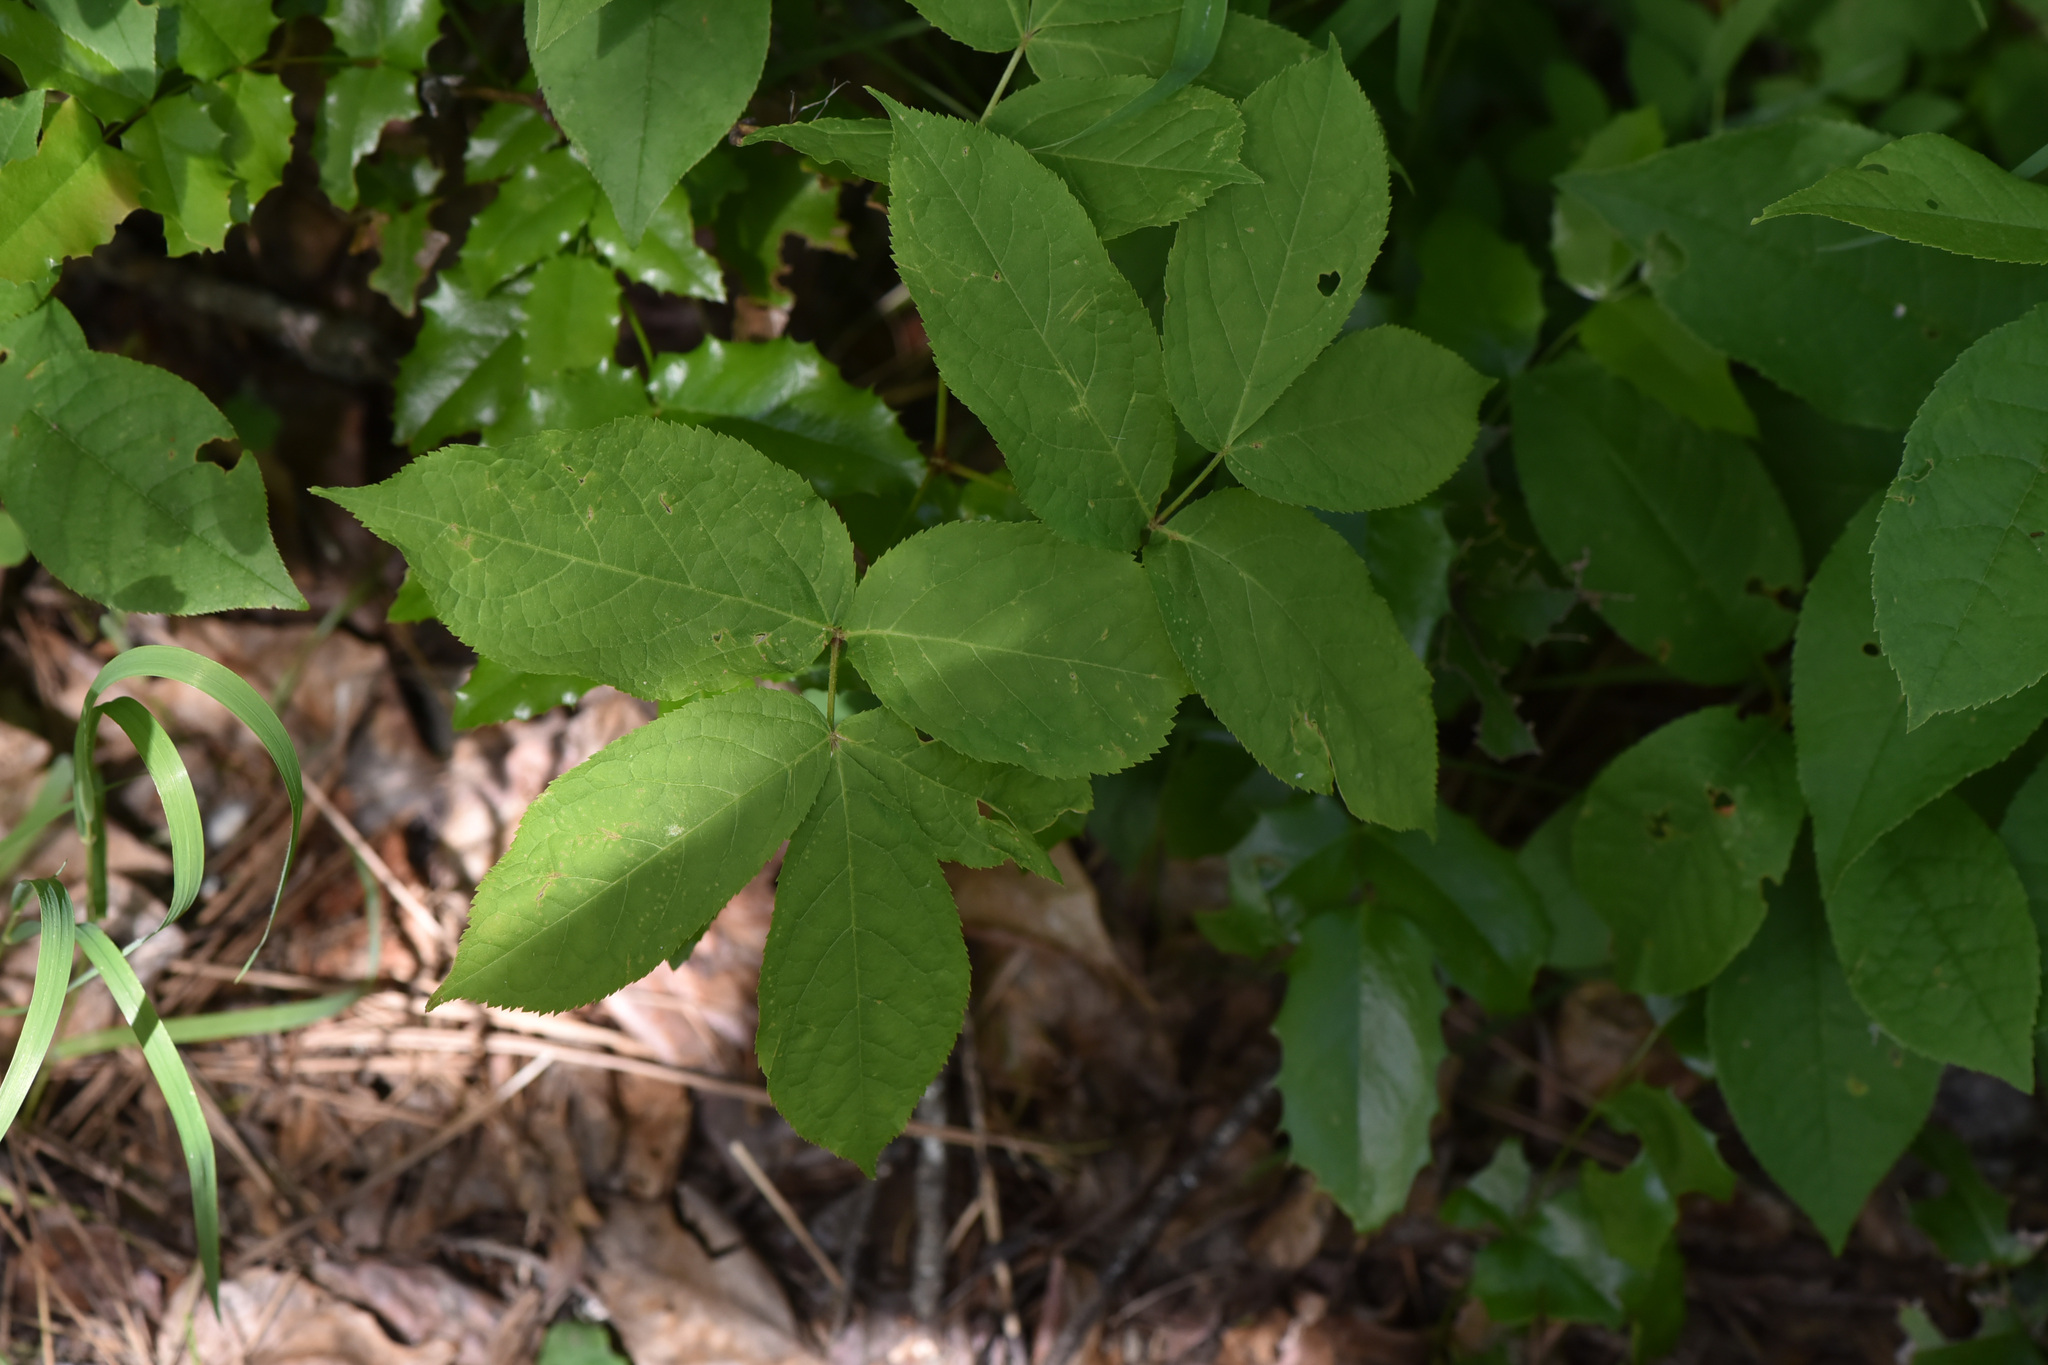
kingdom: Plantae
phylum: Tracheophyta
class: Magnoliopsida
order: Apiales
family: Araliaceae
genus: Aralia
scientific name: Aralia nudicaulis
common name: Wild sarsaparilla
